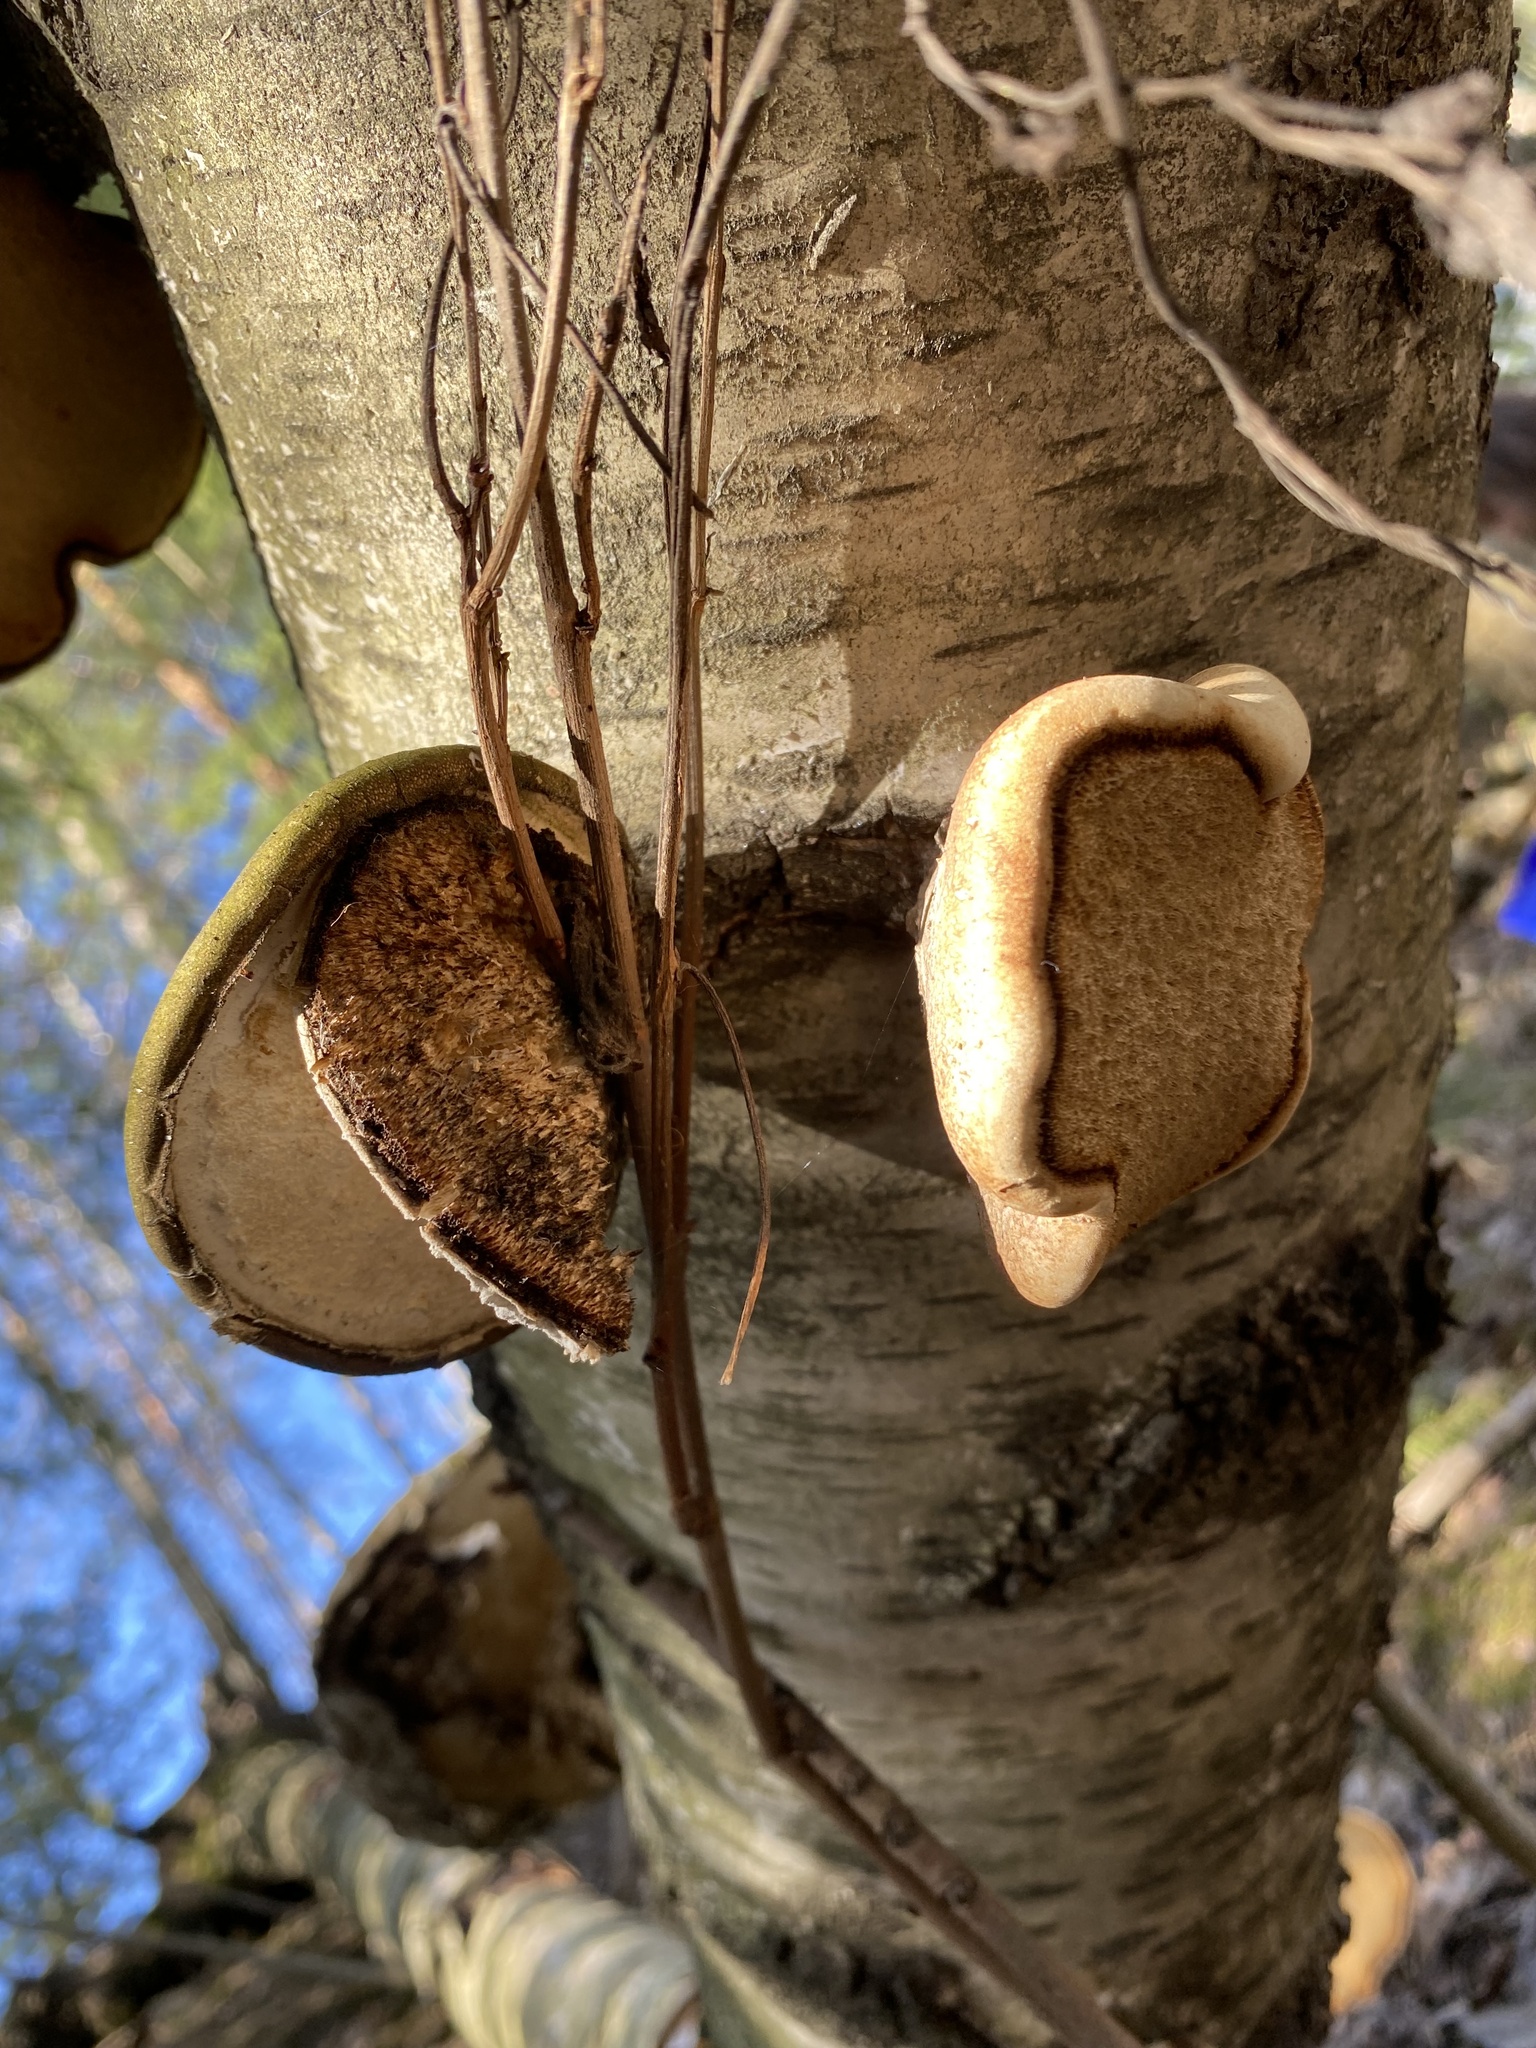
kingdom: Fungi
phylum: Basidiomycota
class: Agaricomycetes
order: Polyporales
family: Fomitopsidaceae
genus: Fomitopsis
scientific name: Fomitopsis betulina
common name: Birch polypore
